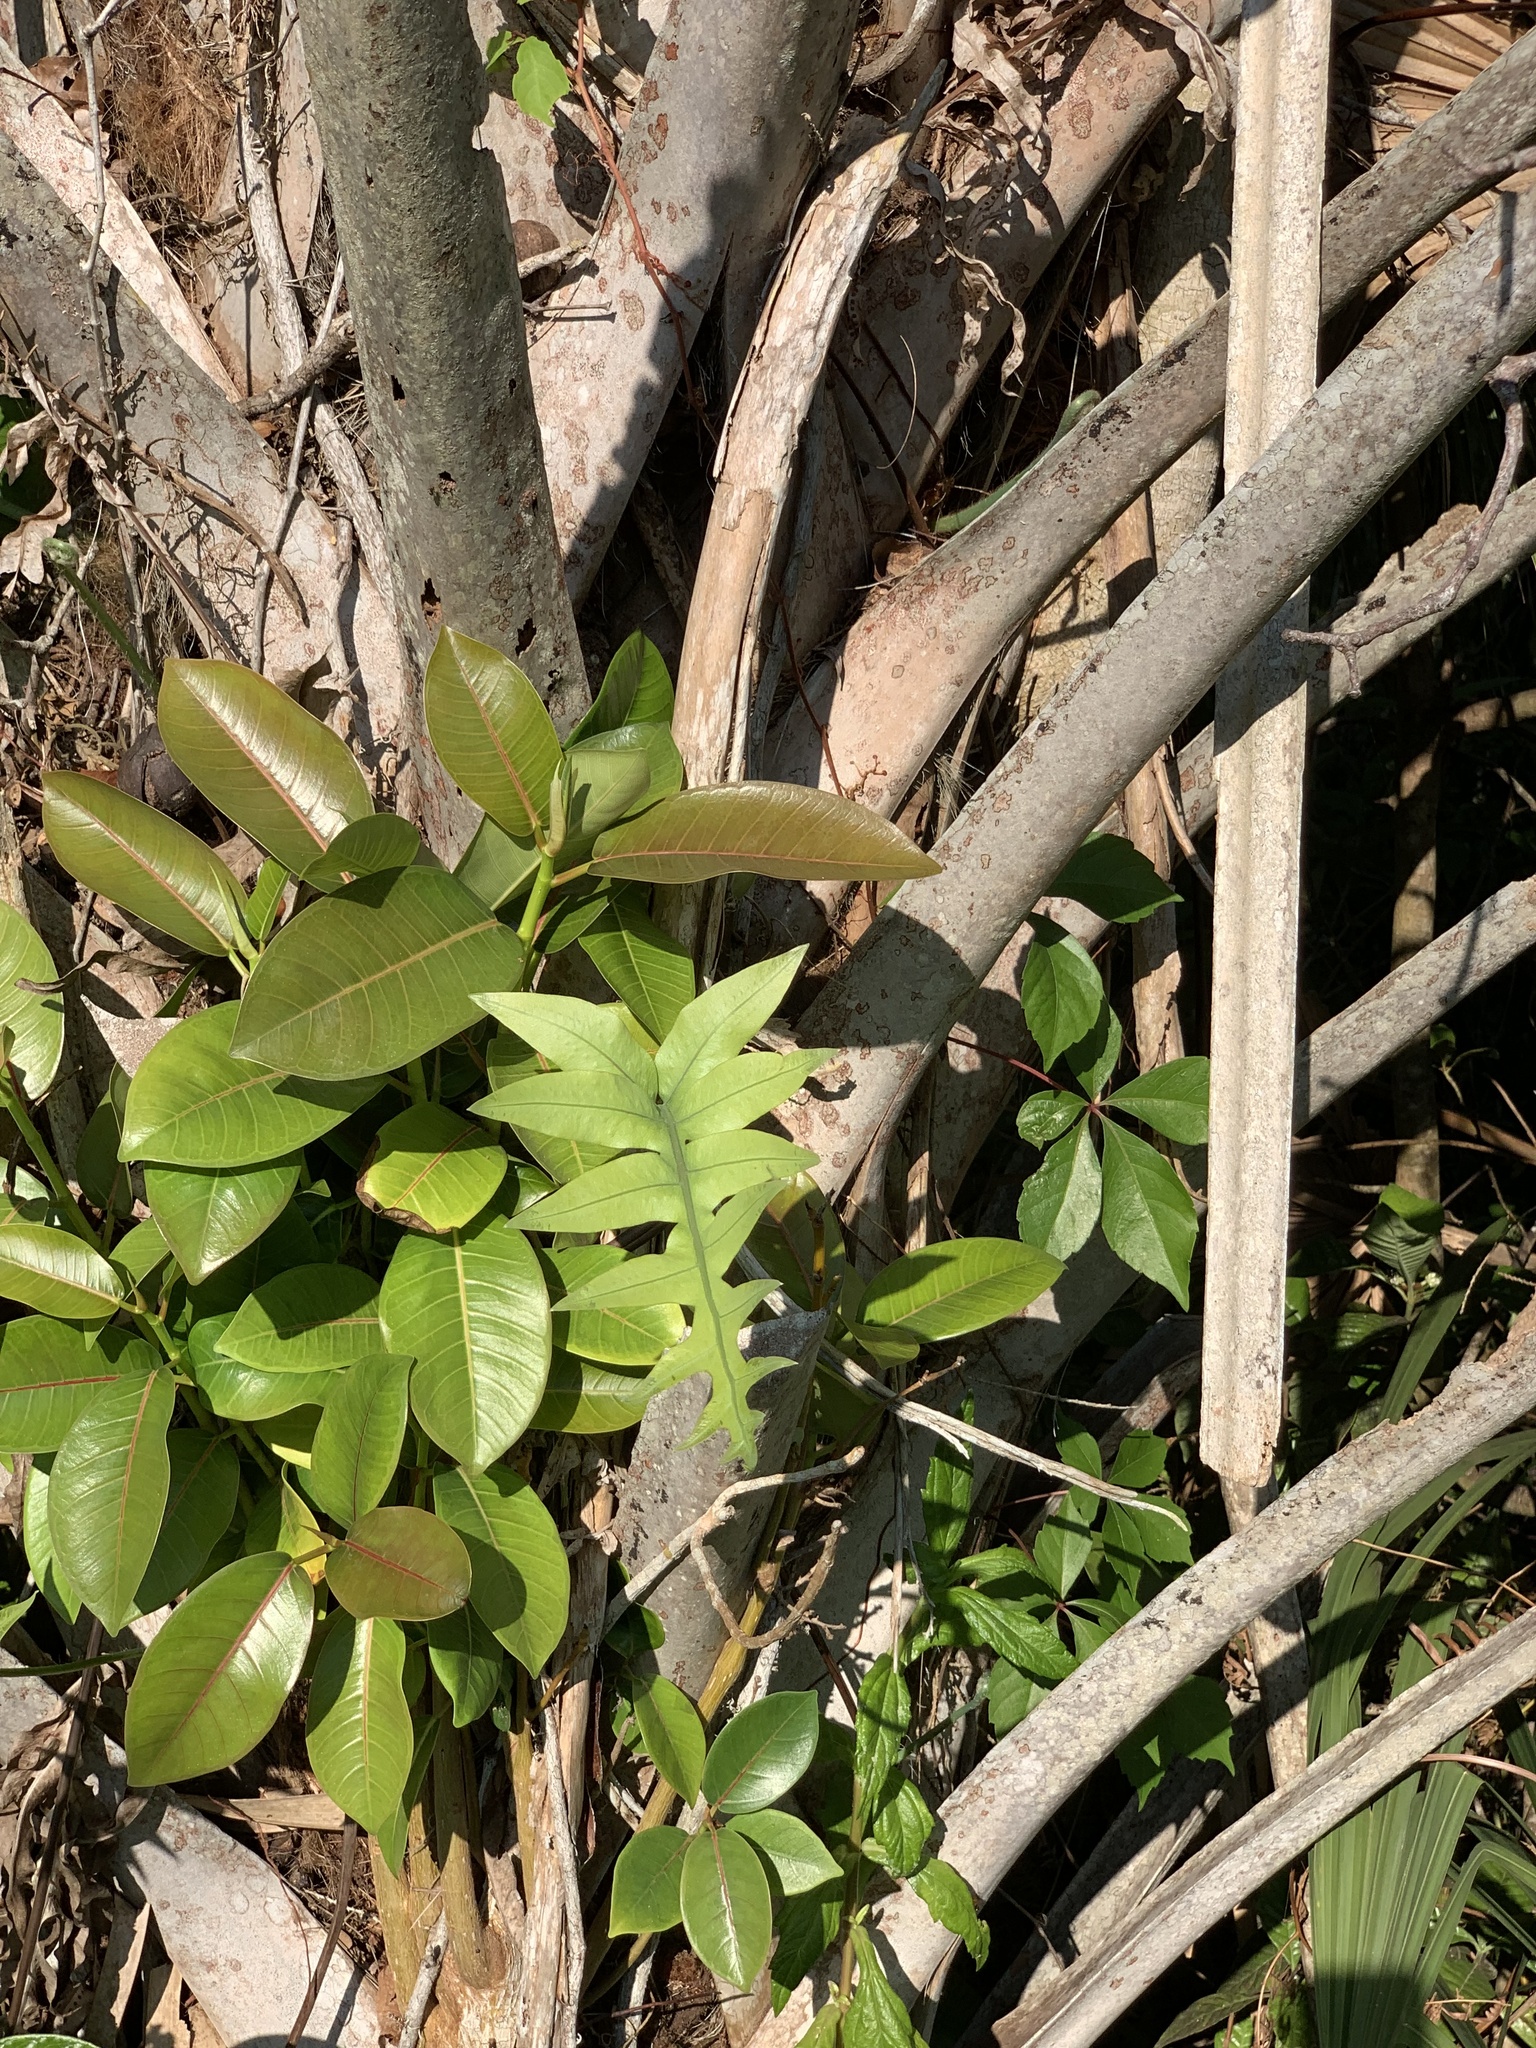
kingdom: Plantae
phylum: Tracheophyta
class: Polypodiopsida
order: Polypodiales
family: Polypodiaceae
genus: Phlebodium
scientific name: Phlebodium aureum
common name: Gold-foot fern
